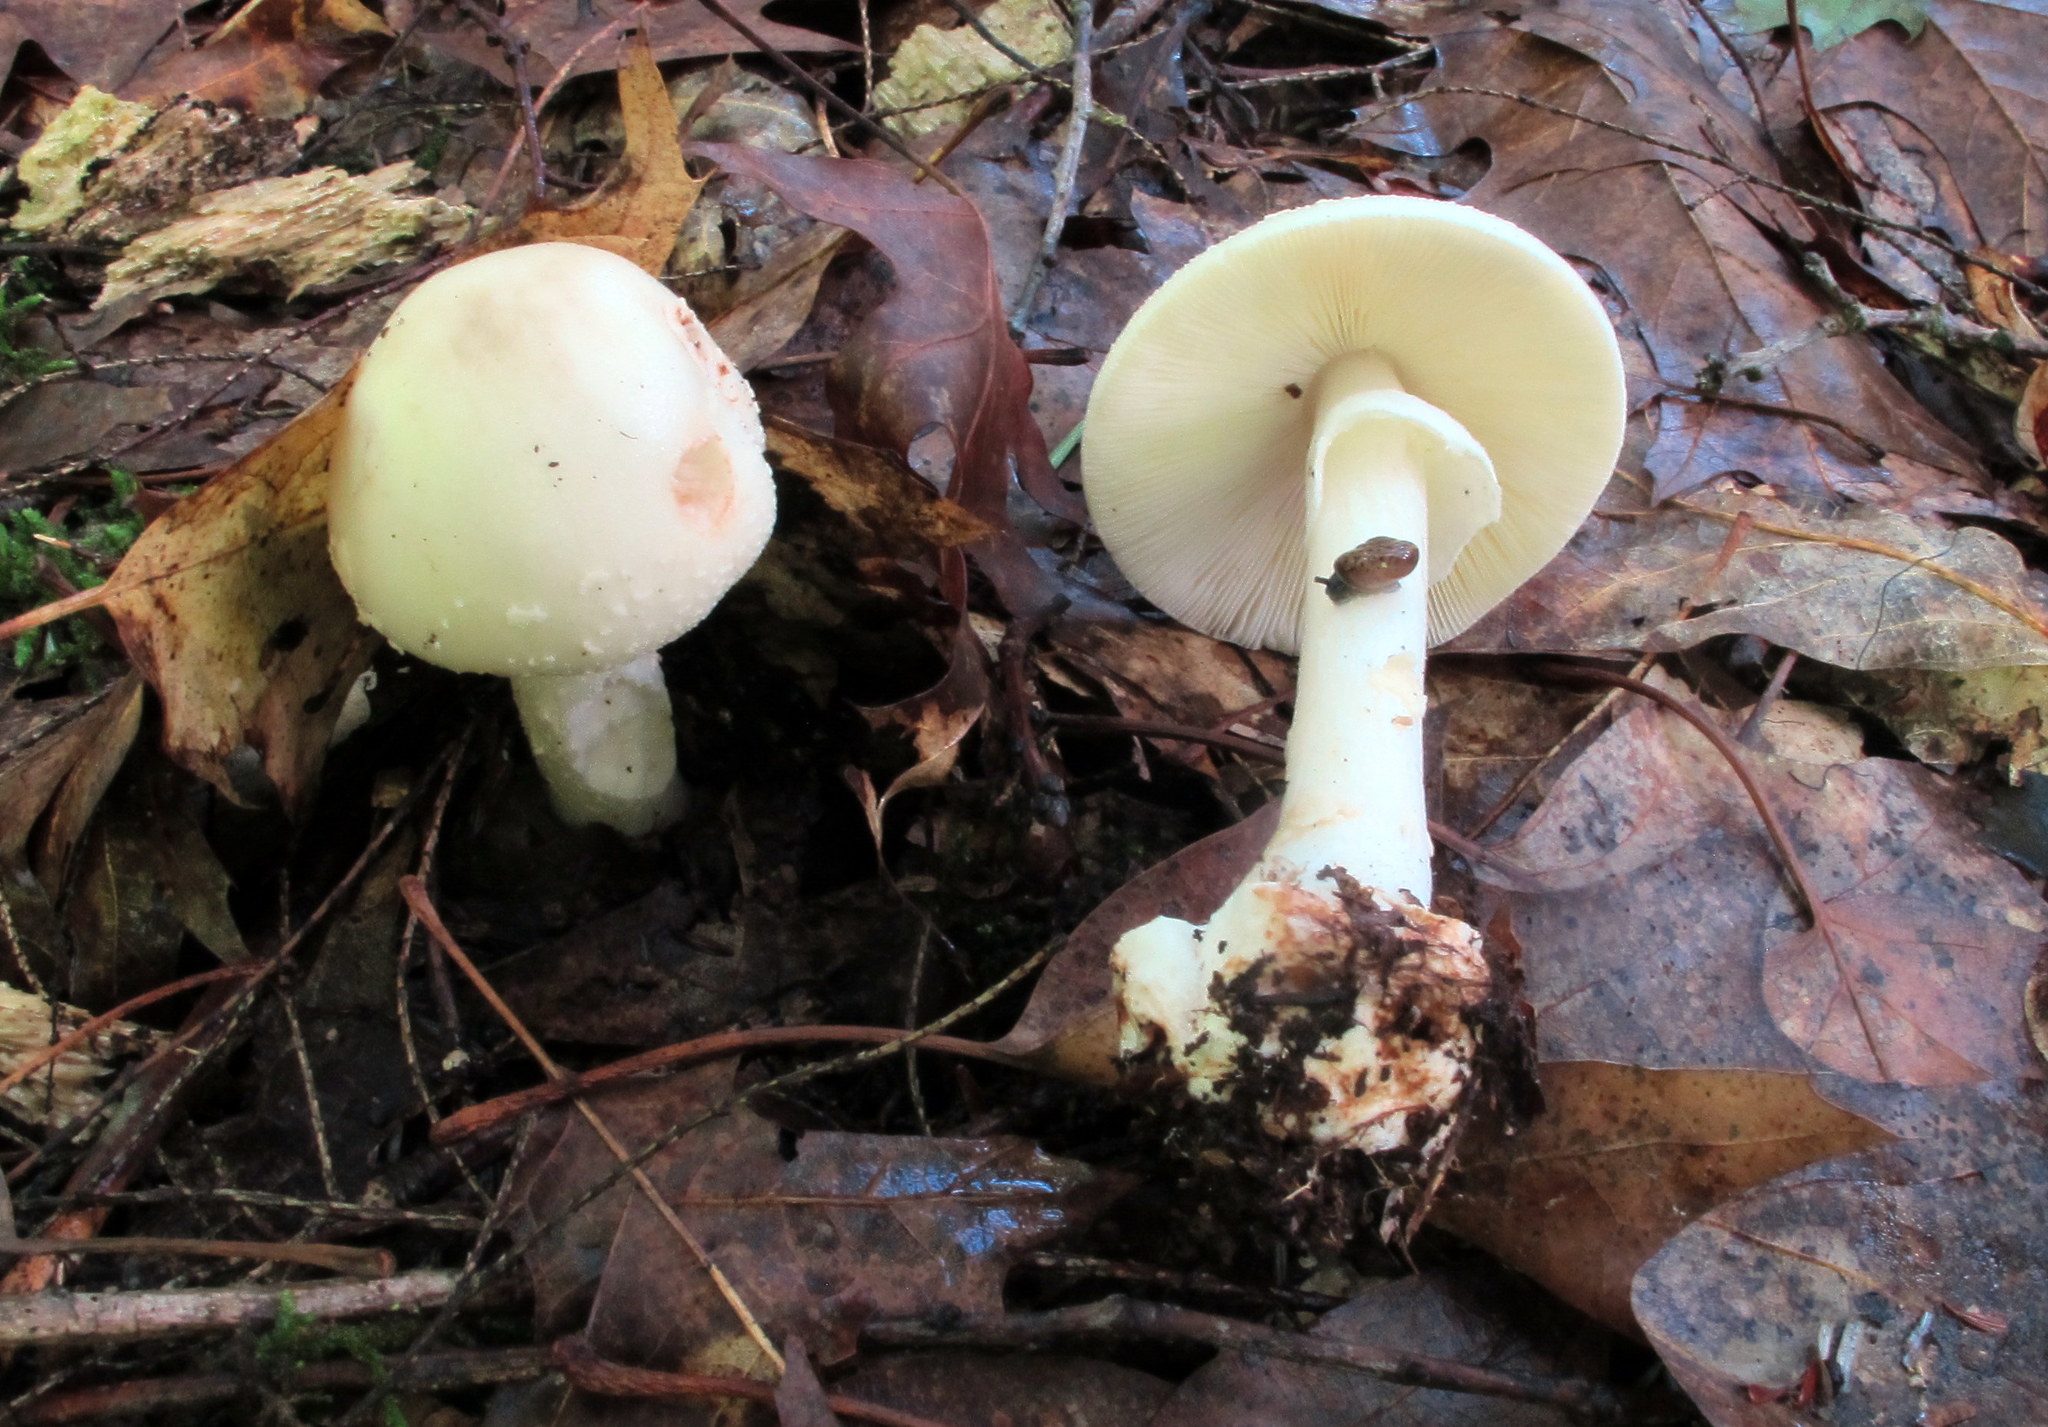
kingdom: Fungi
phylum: Basidiomycota
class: Agaricomycetes
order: Agaricales
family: Amanitaceae
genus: Amanita
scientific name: Amanita brunnescens
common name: Brown american star-footed amanita
